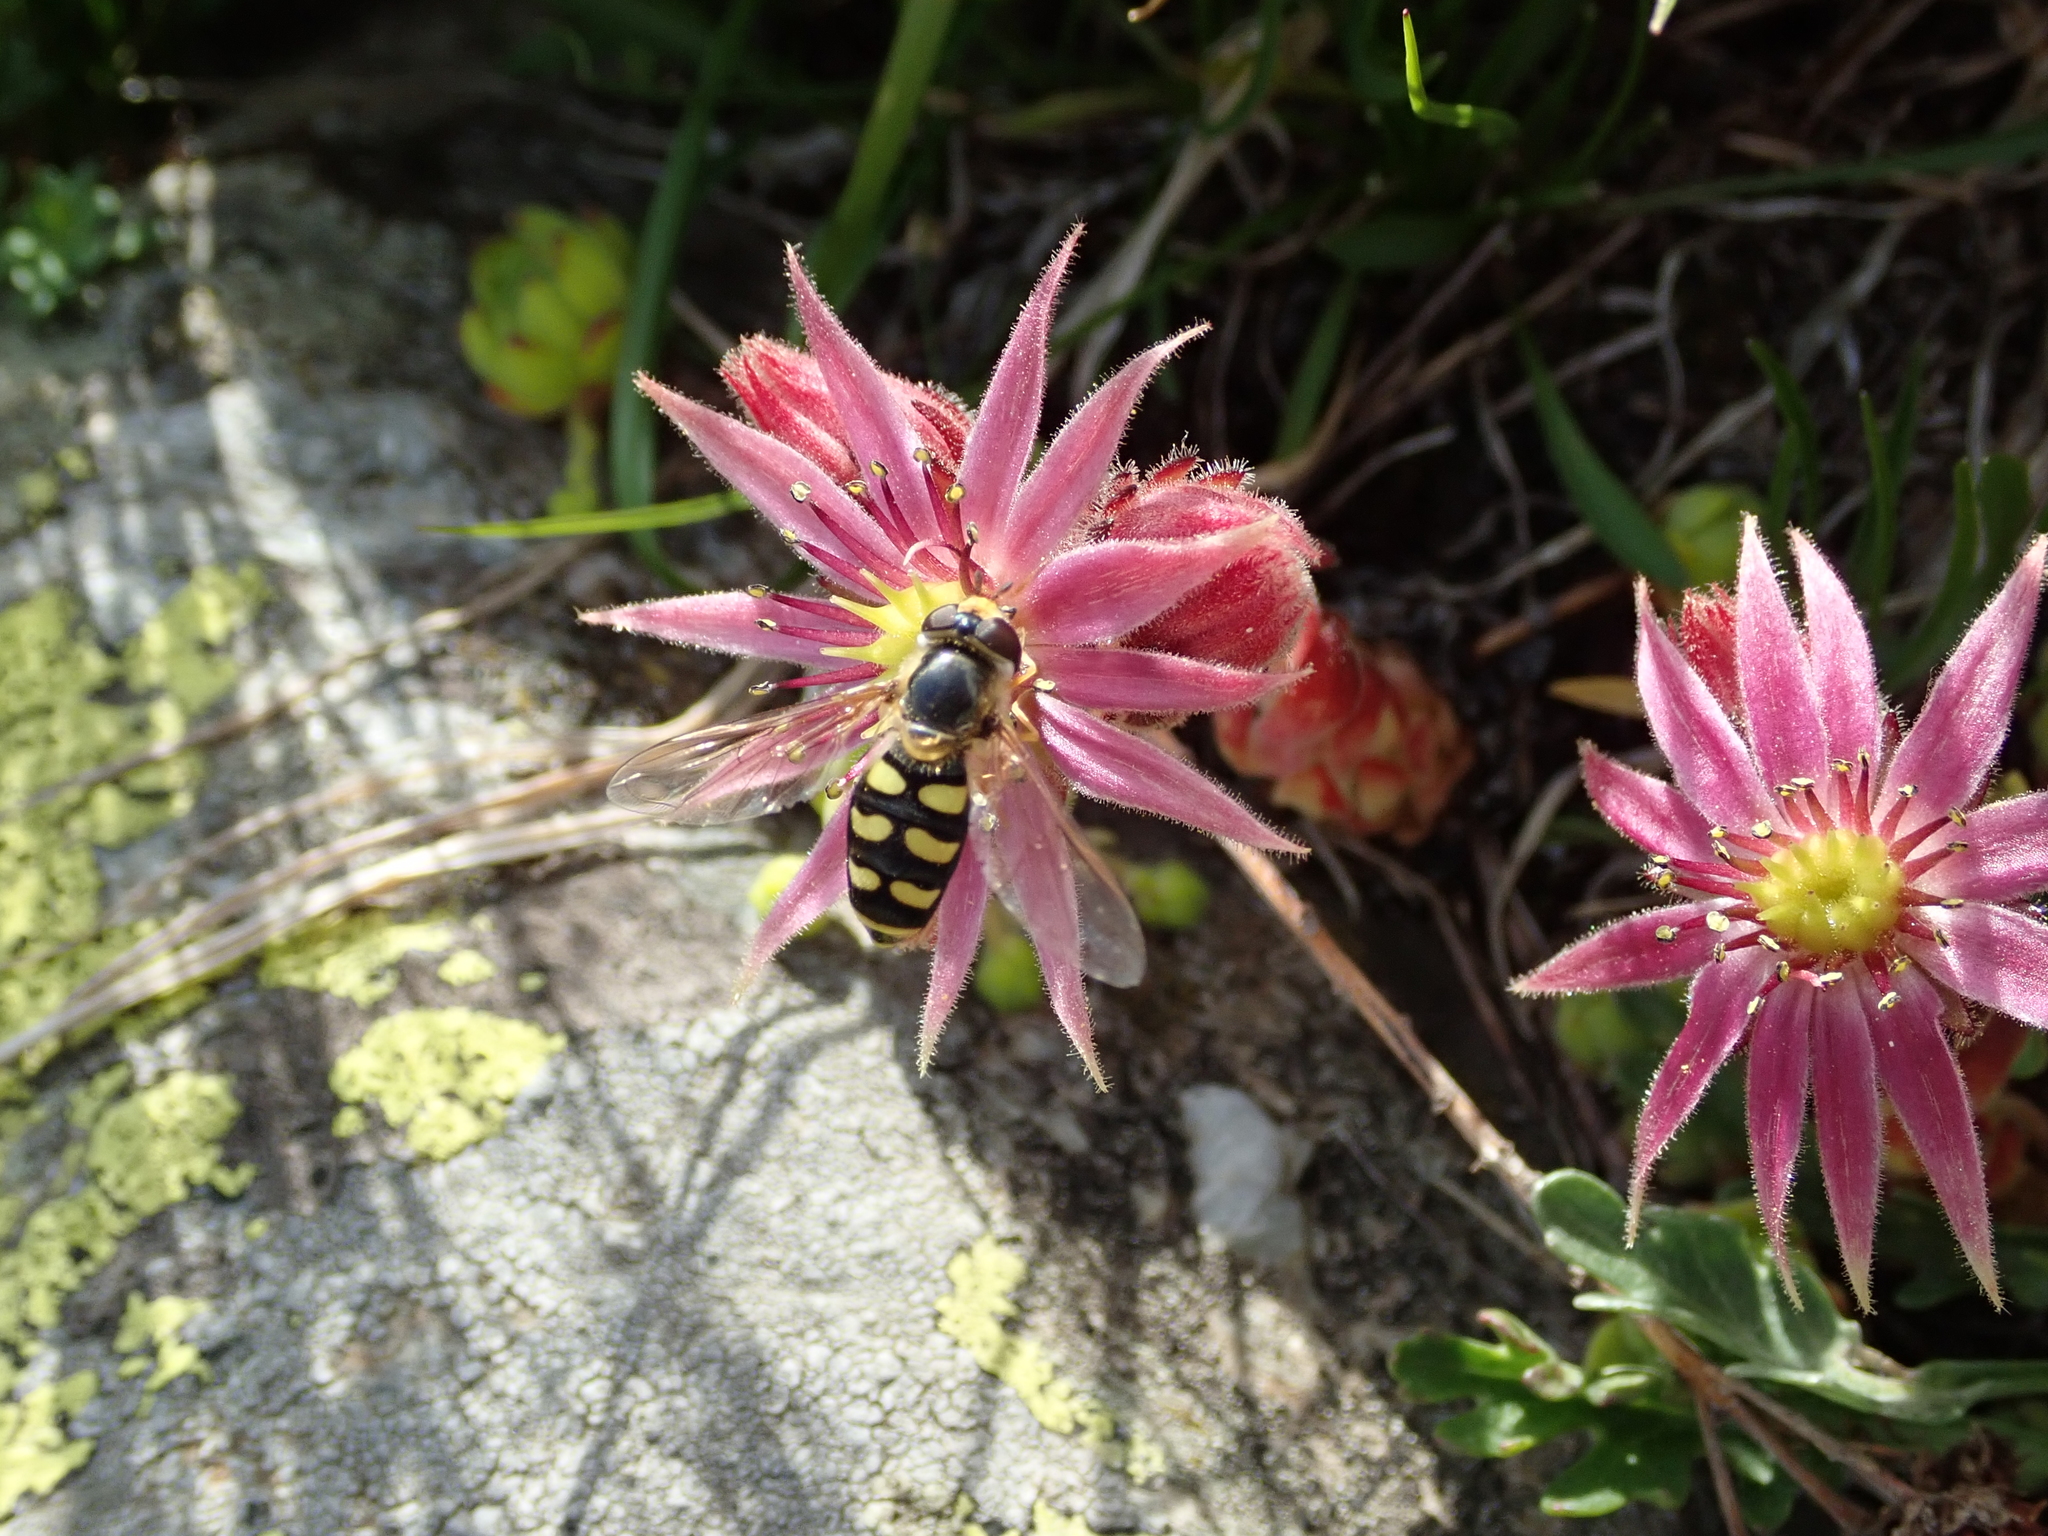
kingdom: Animalia
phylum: Arthropoda
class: Insecta
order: Diptera
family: Syrphidae
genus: Eupeodes
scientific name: Eupeodes luniger
